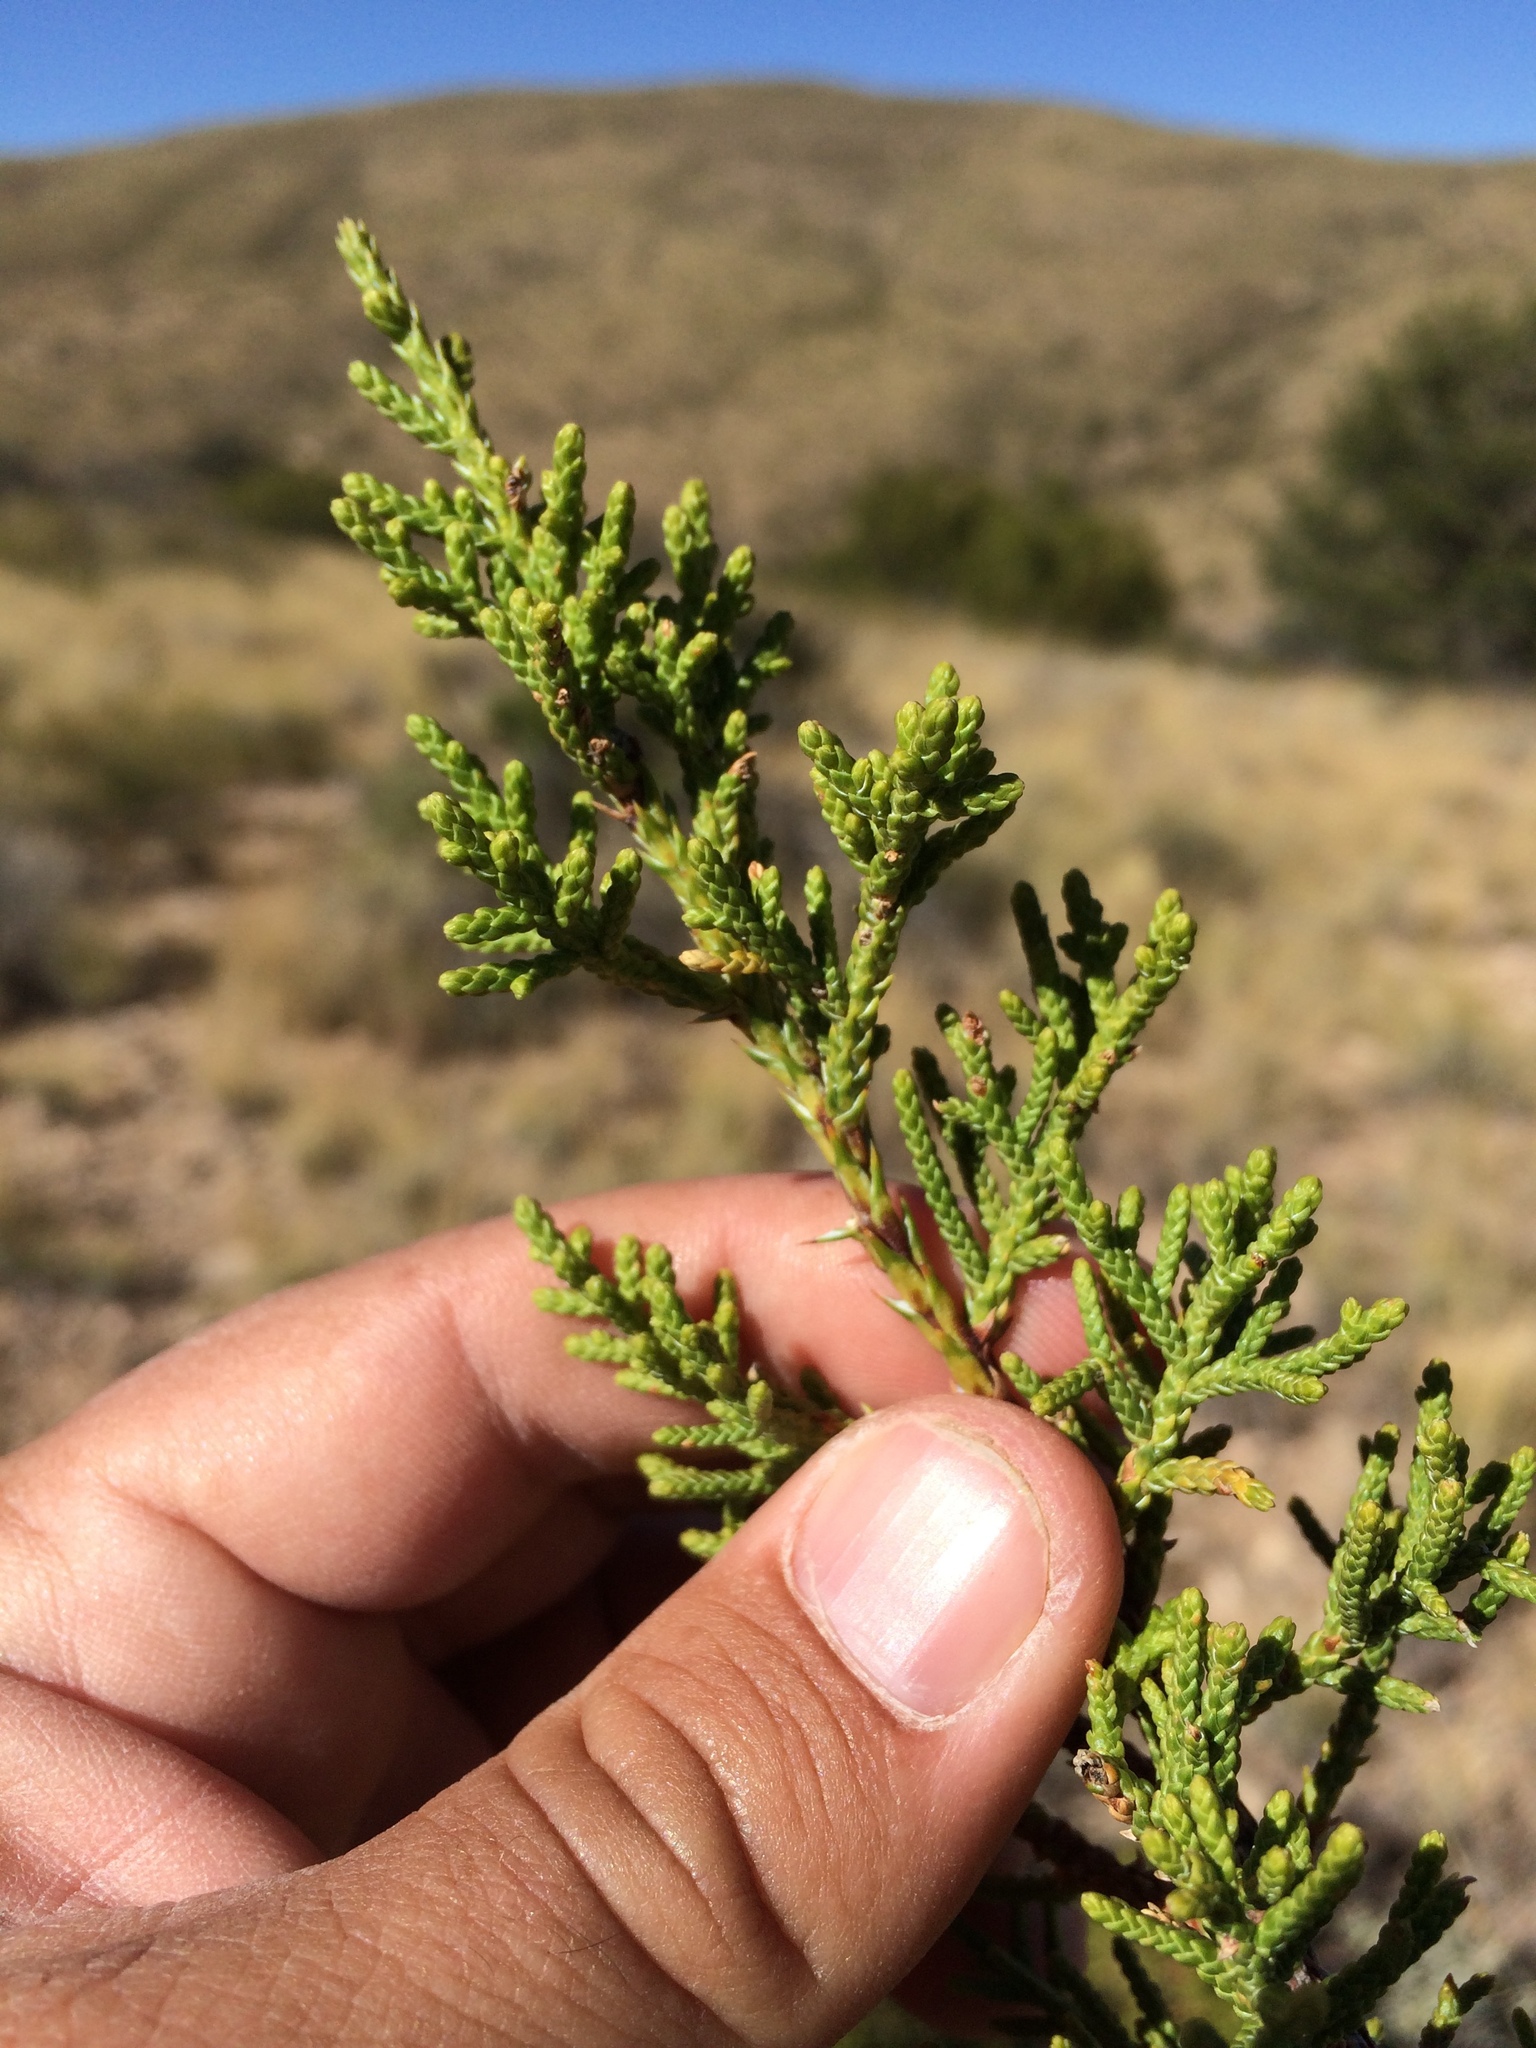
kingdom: Plantae
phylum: Tracheophyta
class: Pinopsida
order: Pinales
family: Cupressaceae
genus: Juniperus
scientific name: Juniperus monosperma
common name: One-seed juniper
